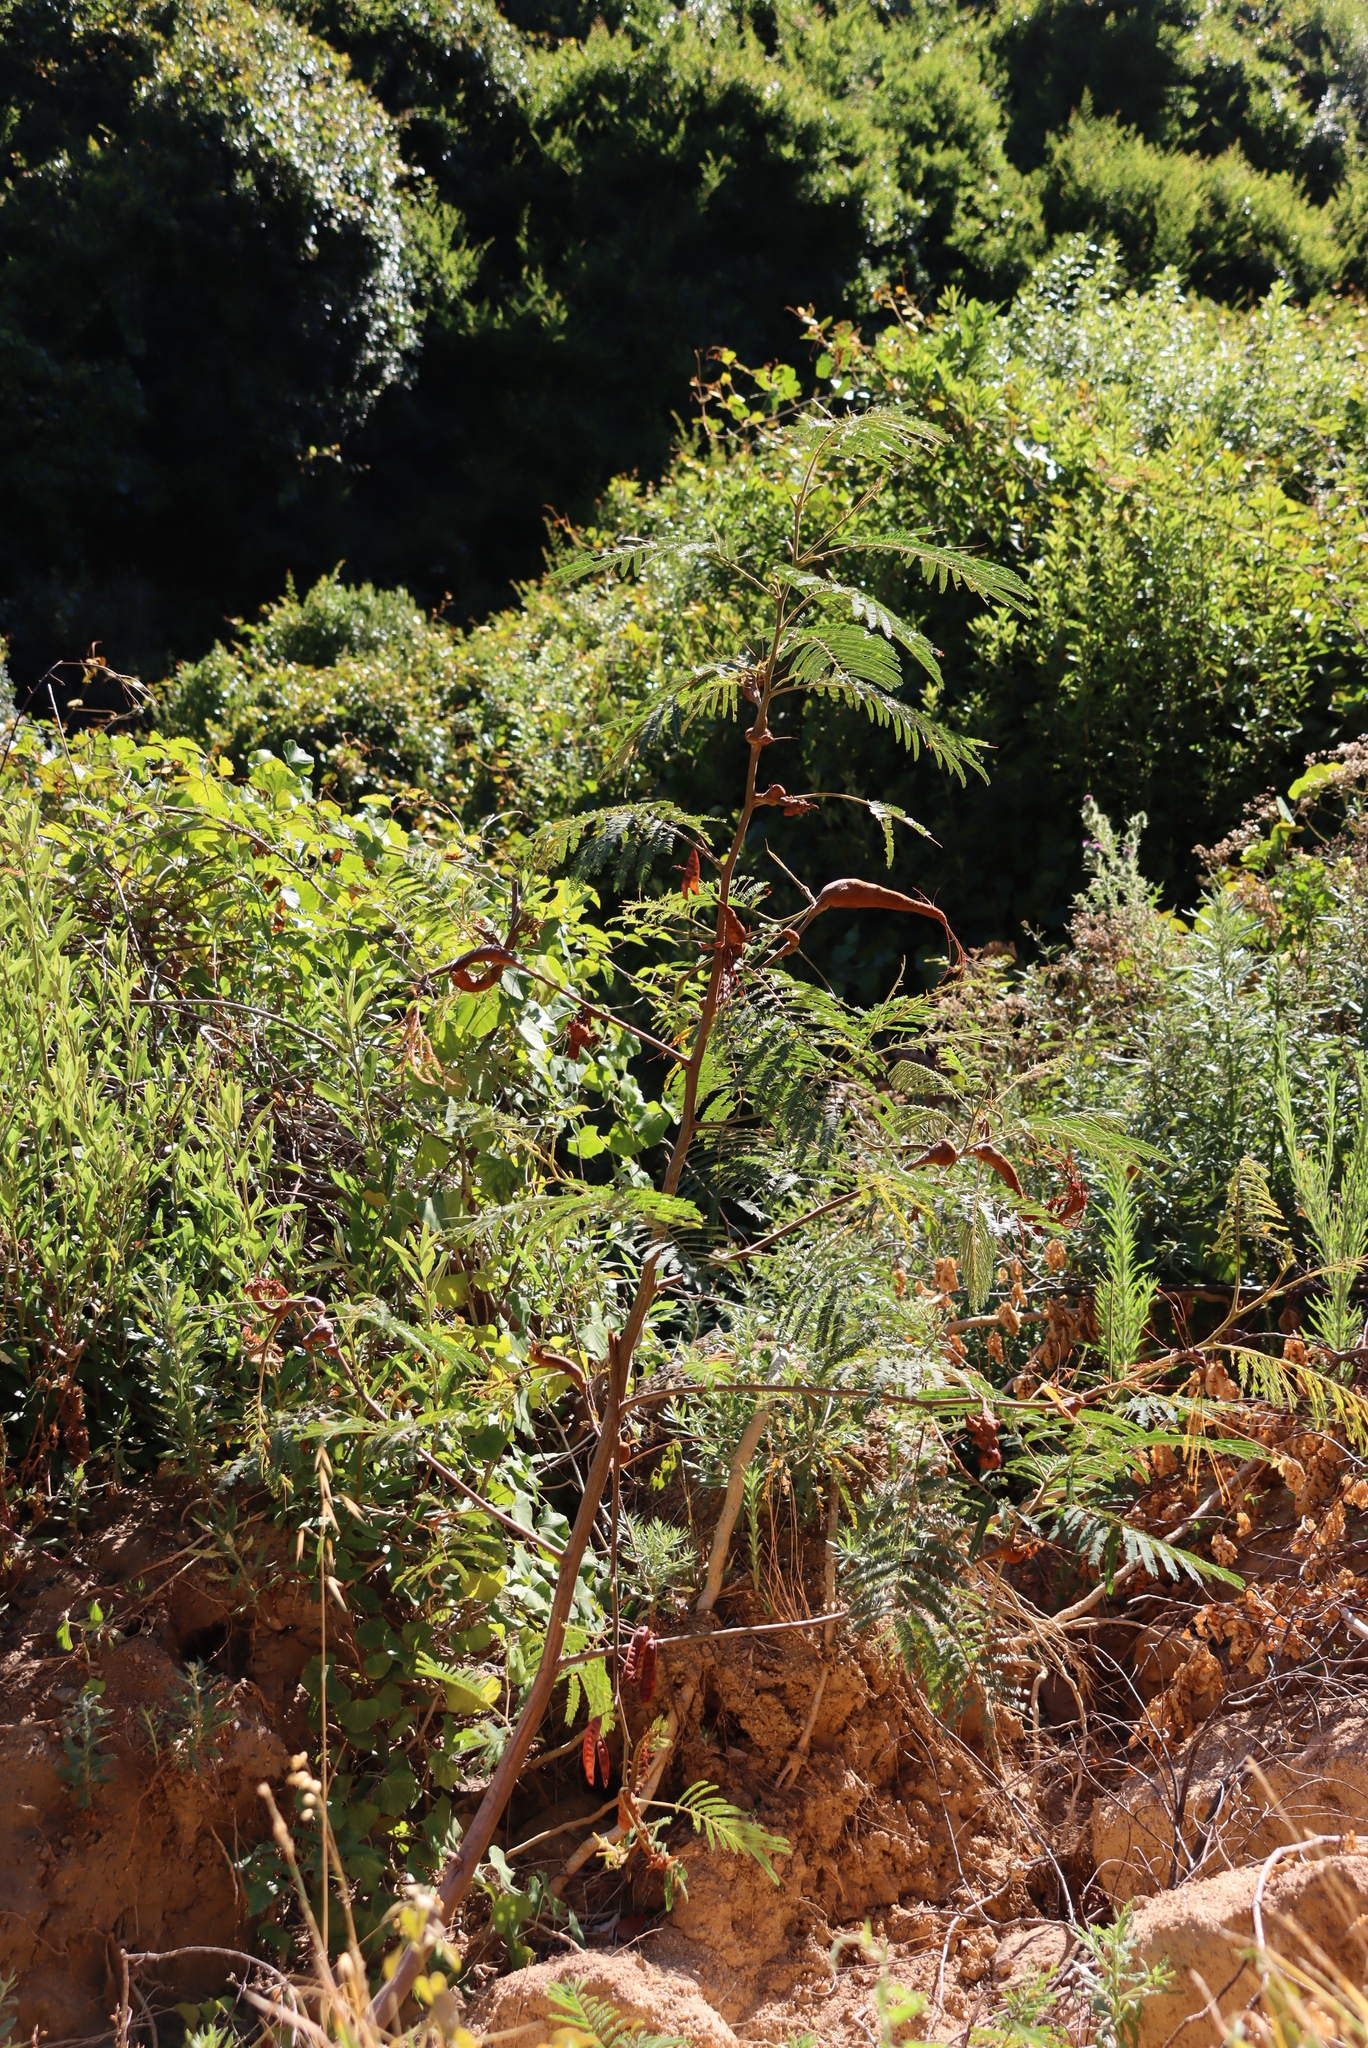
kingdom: Fungi
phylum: Basidiomycota
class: Pucciniomycetes
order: Pucciniales
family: Uromycladiaceae
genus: Uromycladium
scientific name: Uromycladium woodii
